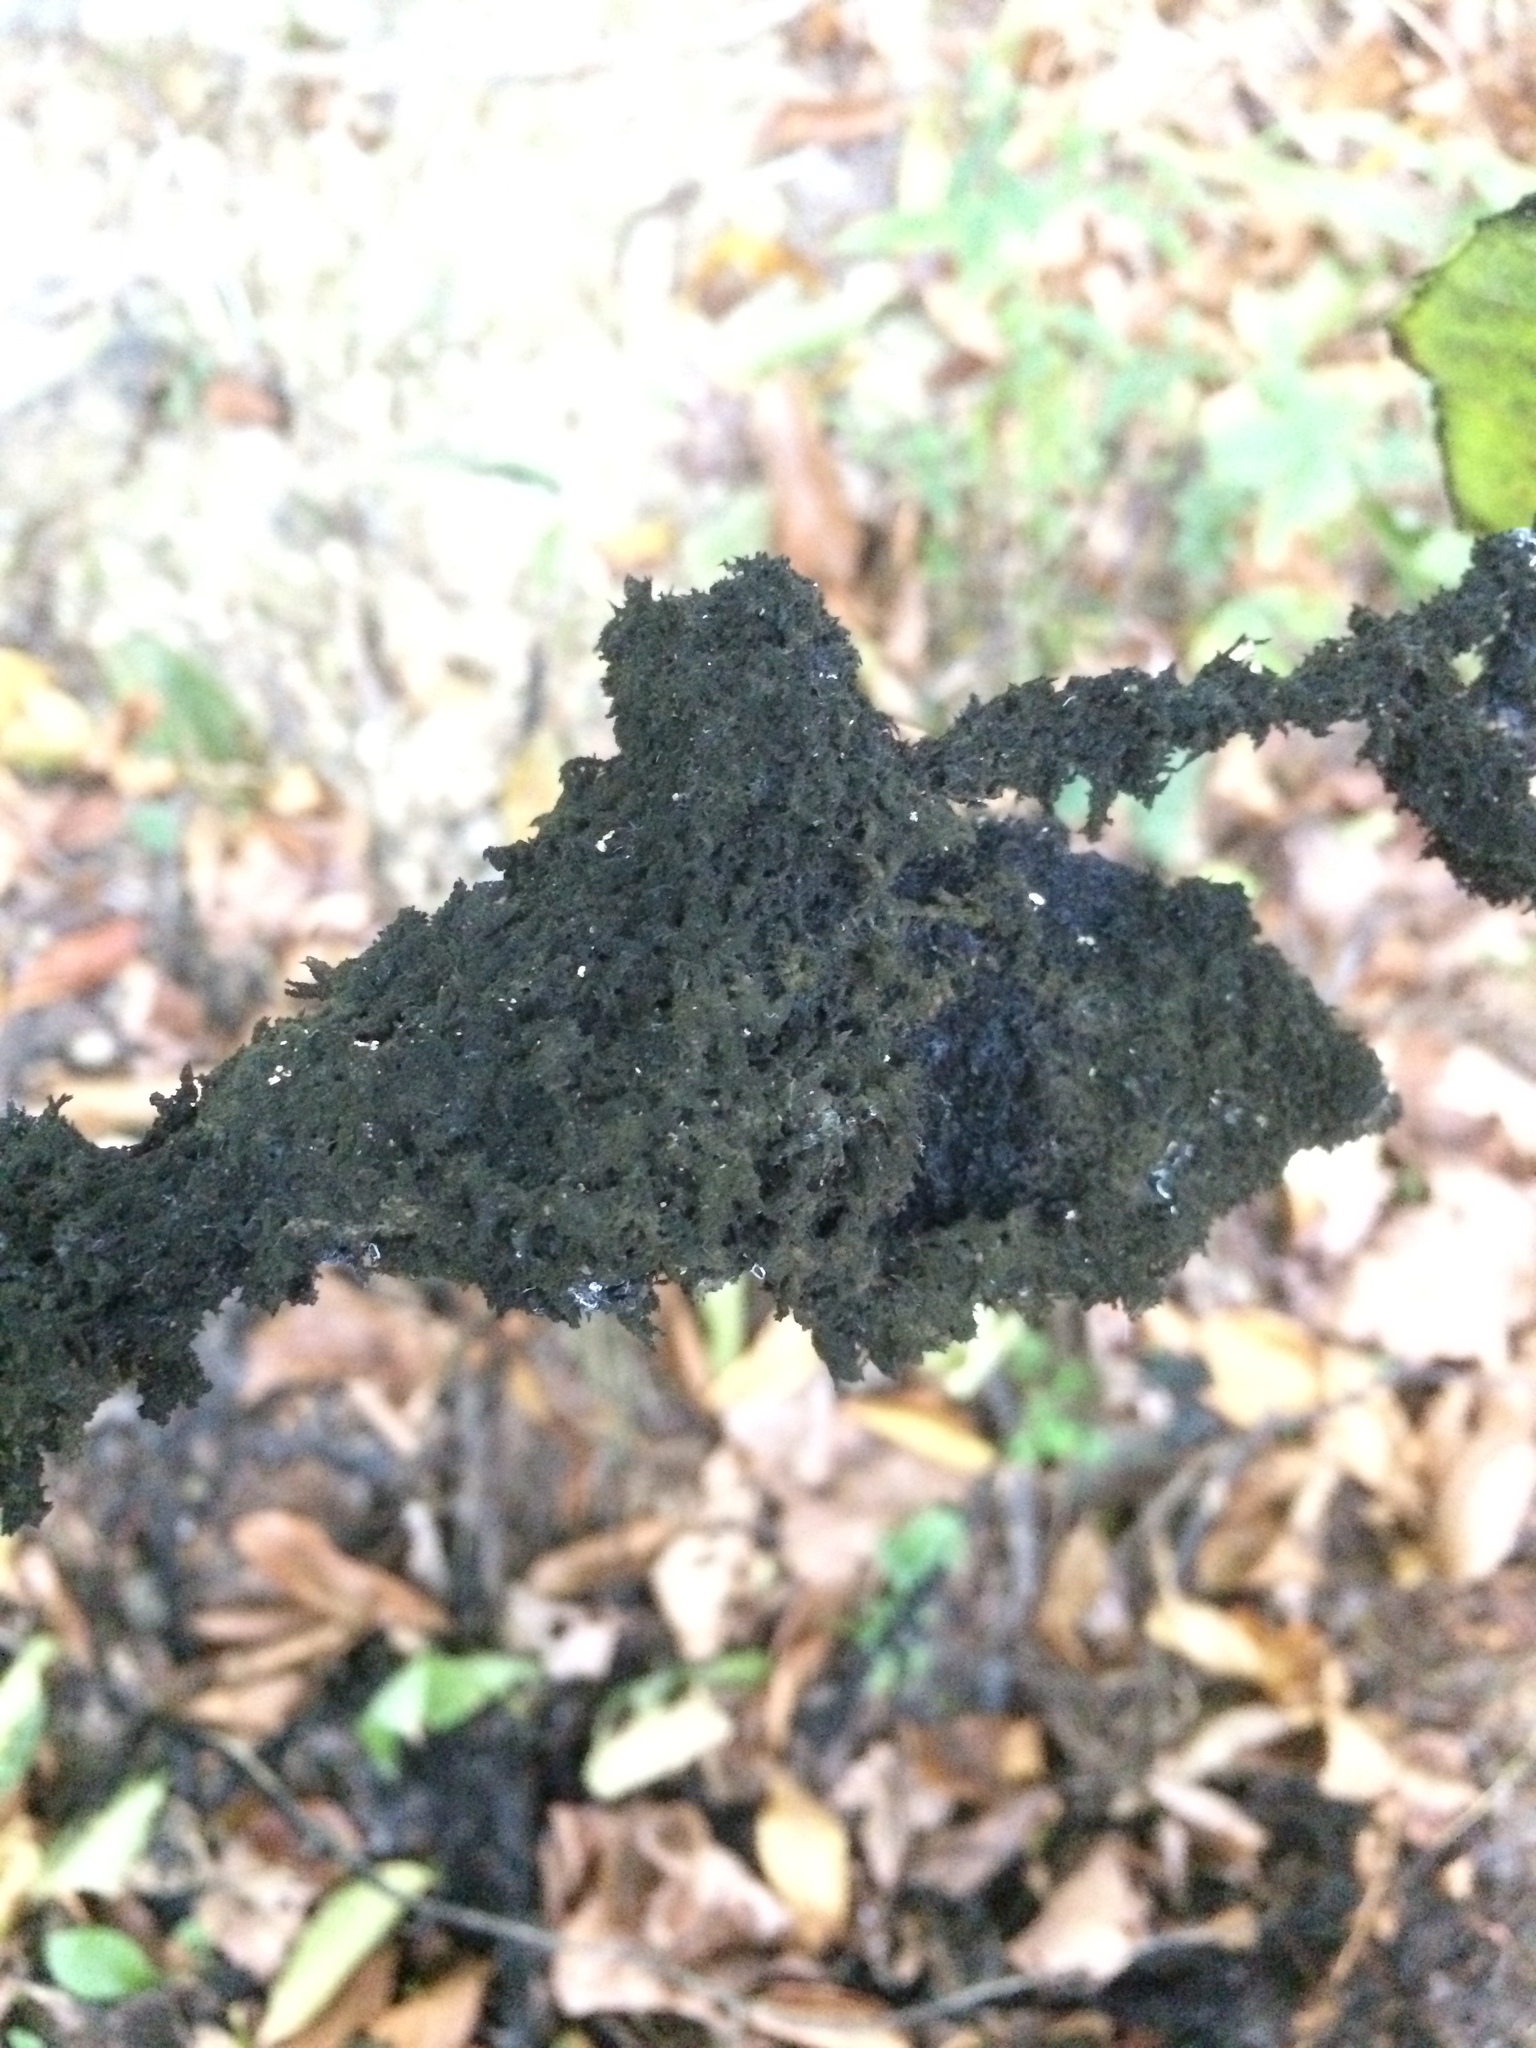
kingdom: Fungi
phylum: Ascomycota
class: Dothideomycetes
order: Capnodiales
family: Capnodiaceae
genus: Scorias
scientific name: Scorias spongiosa
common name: Black sooty mold
